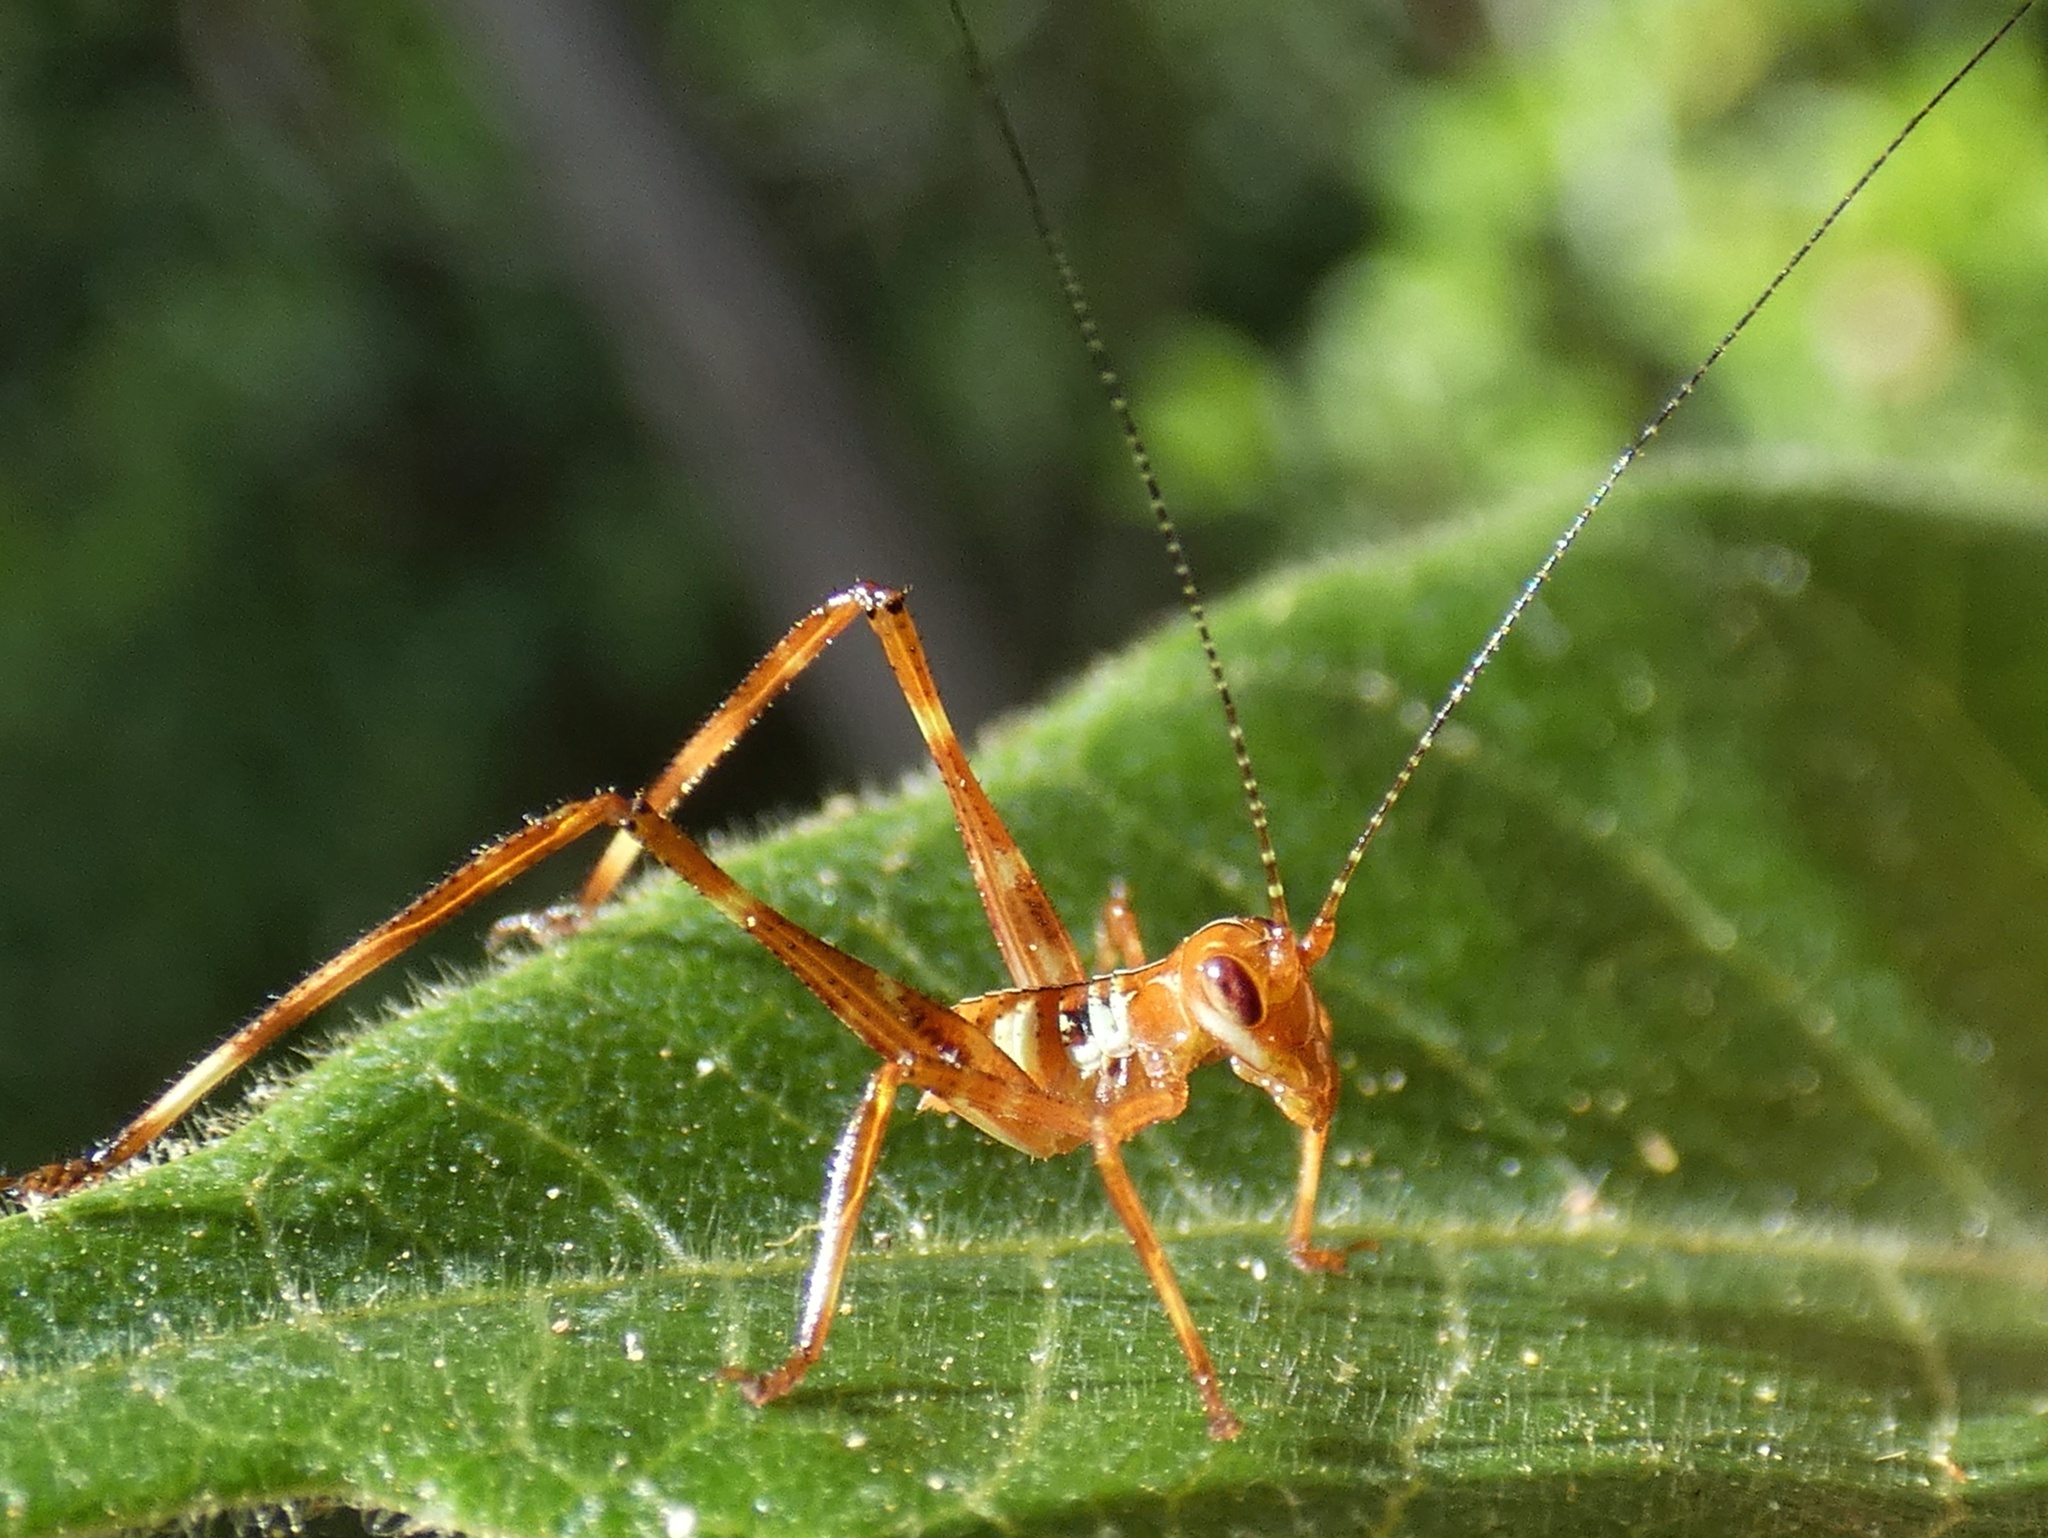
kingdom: Animalia
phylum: Arthropoda
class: Insecta
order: Orthoptera
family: Tettigoniidae
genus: Paracaedicia
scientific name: Paracaedicia serrata
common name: Serrated bush katydid
